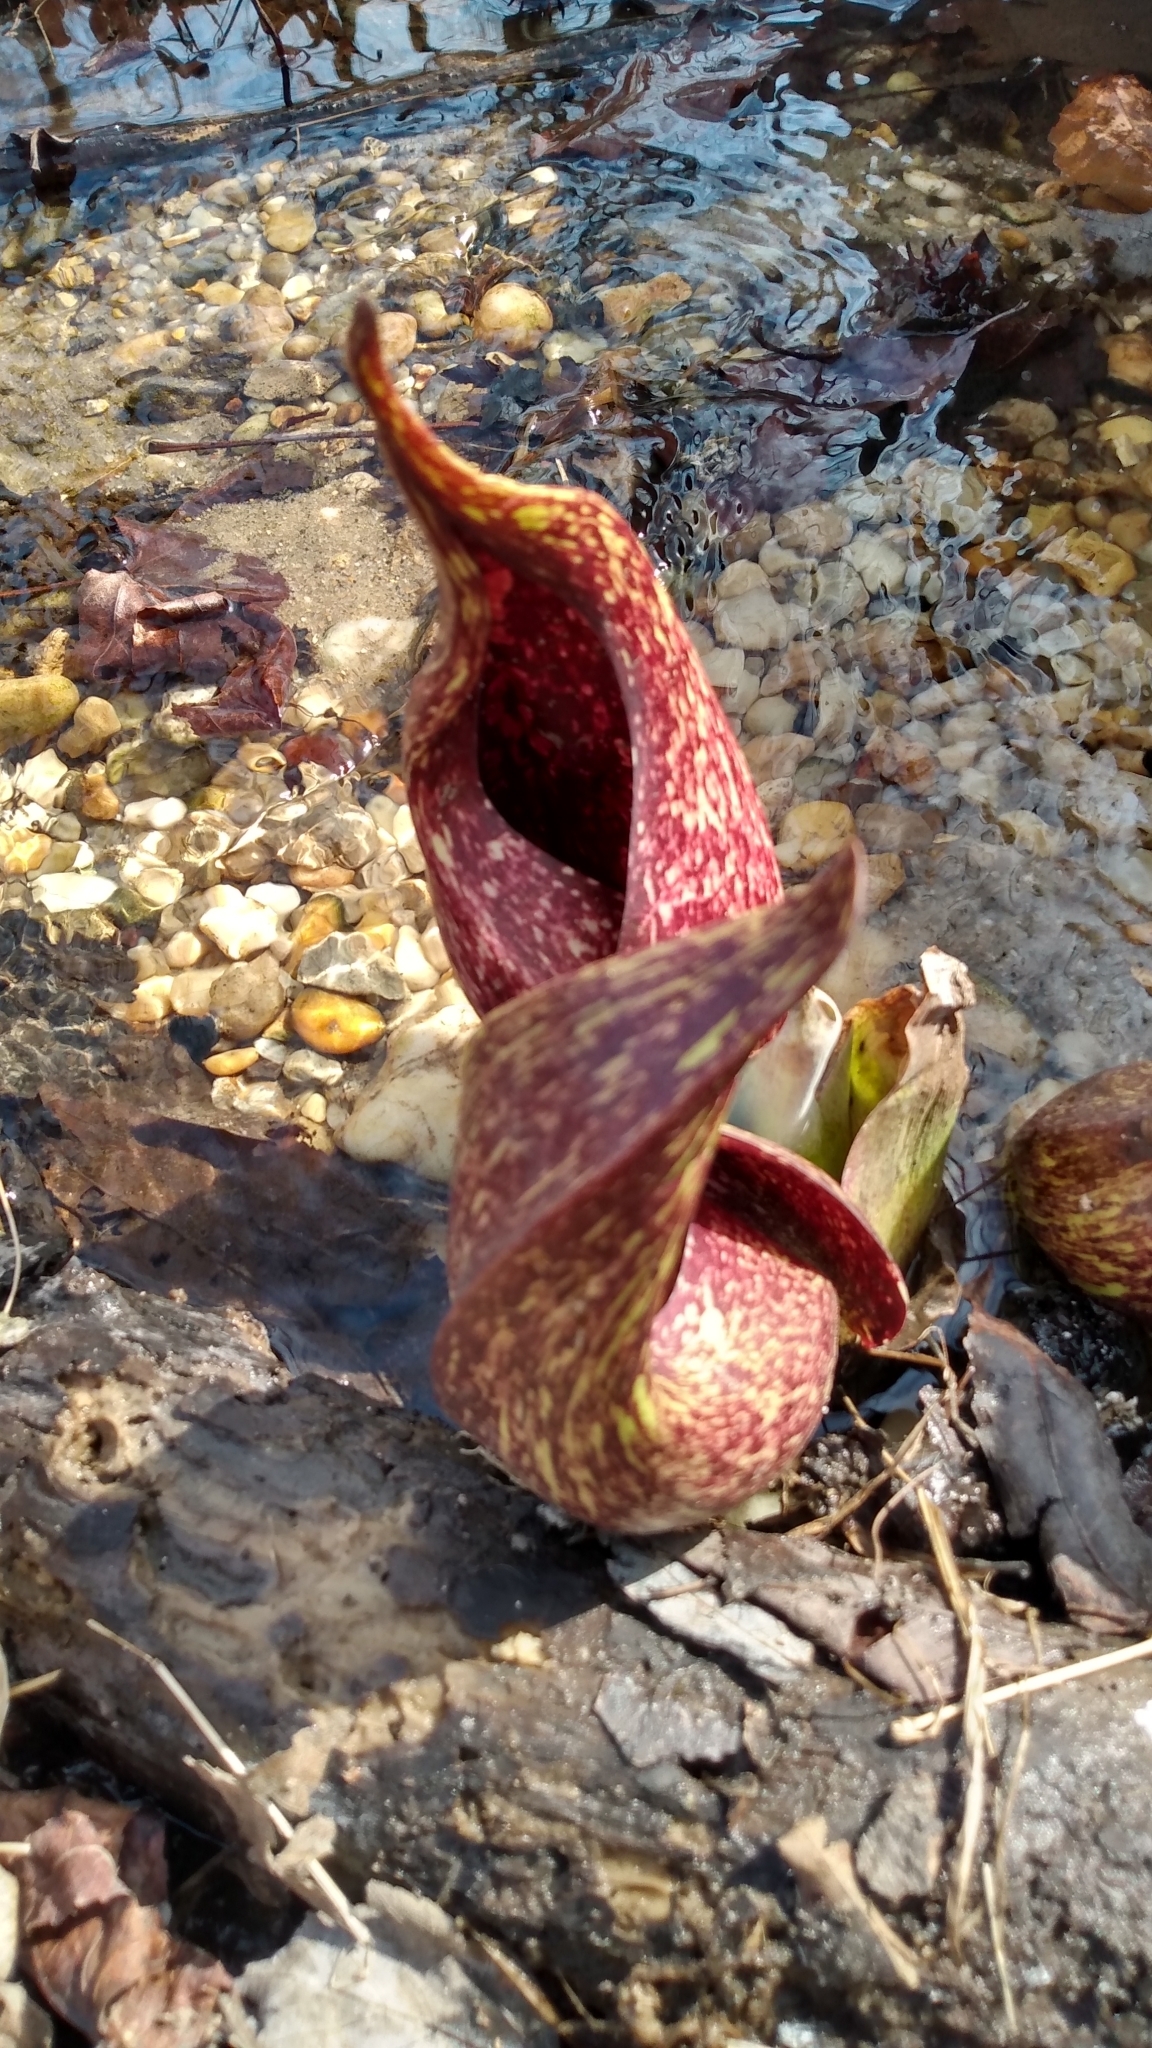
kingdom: Plantae
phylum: Tracheophyta
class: Liliopsida
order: Alismatales
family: Araceae
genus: Symplocarpus
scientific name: Symplocarpus foetidus
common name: Eastern skunk cabbage
